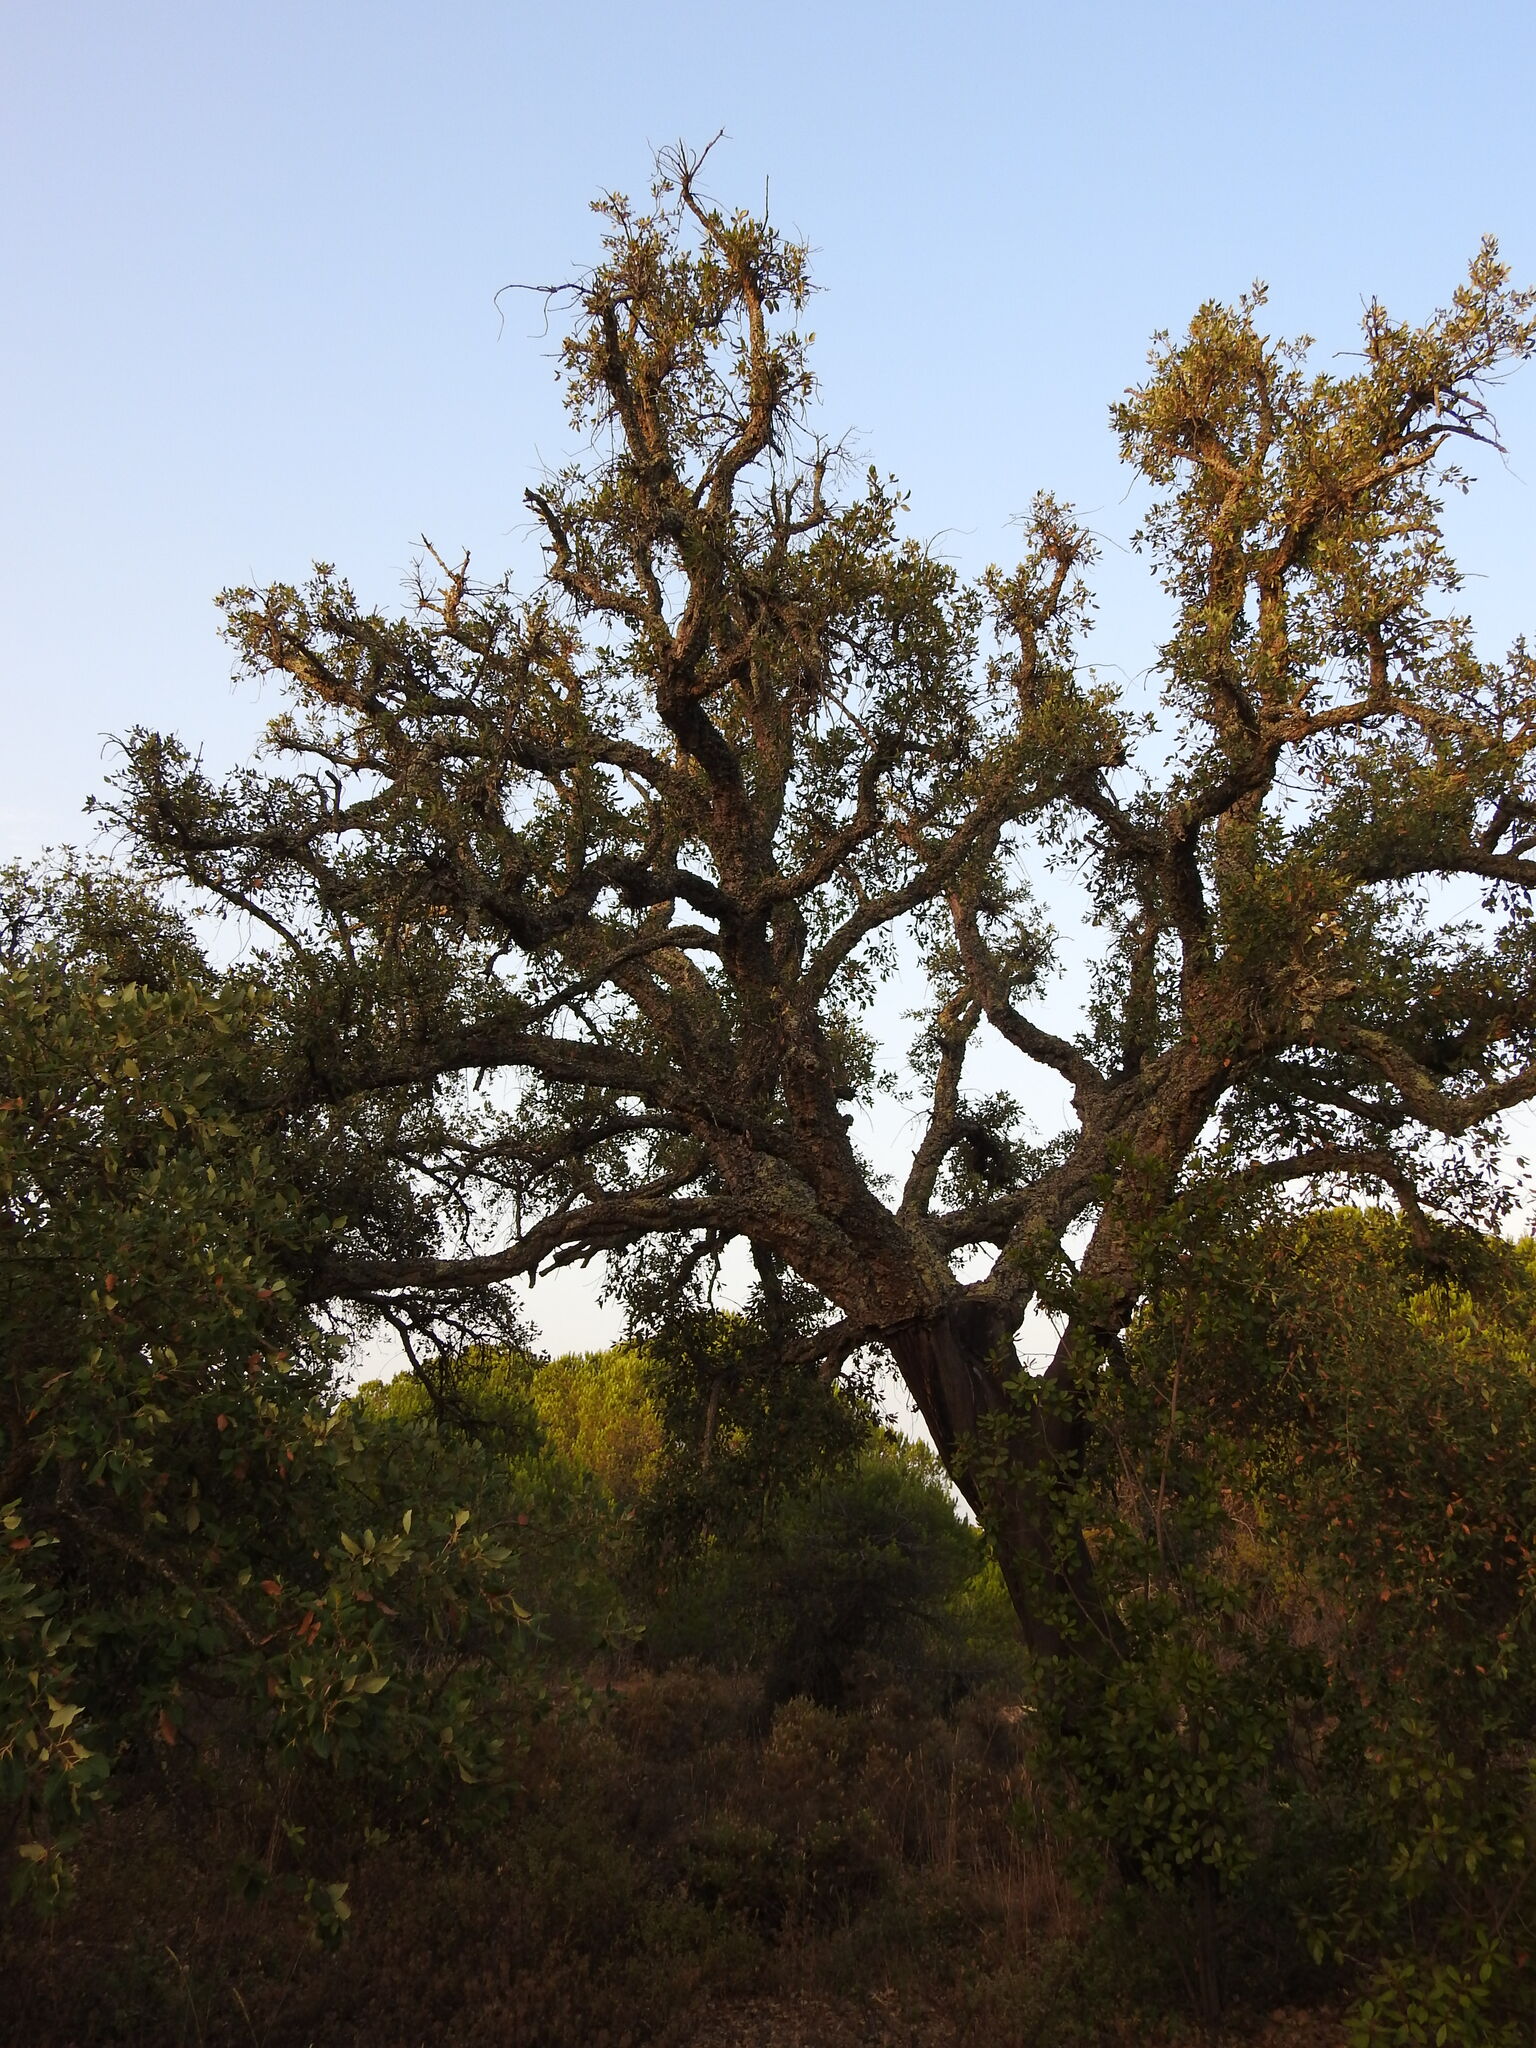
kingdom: Plantae
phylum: Tracheophyta
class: Magnoliopsida
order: Fagales
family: Fagaceae
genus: Quercus
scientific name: Quercus suber
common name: Cork oak
